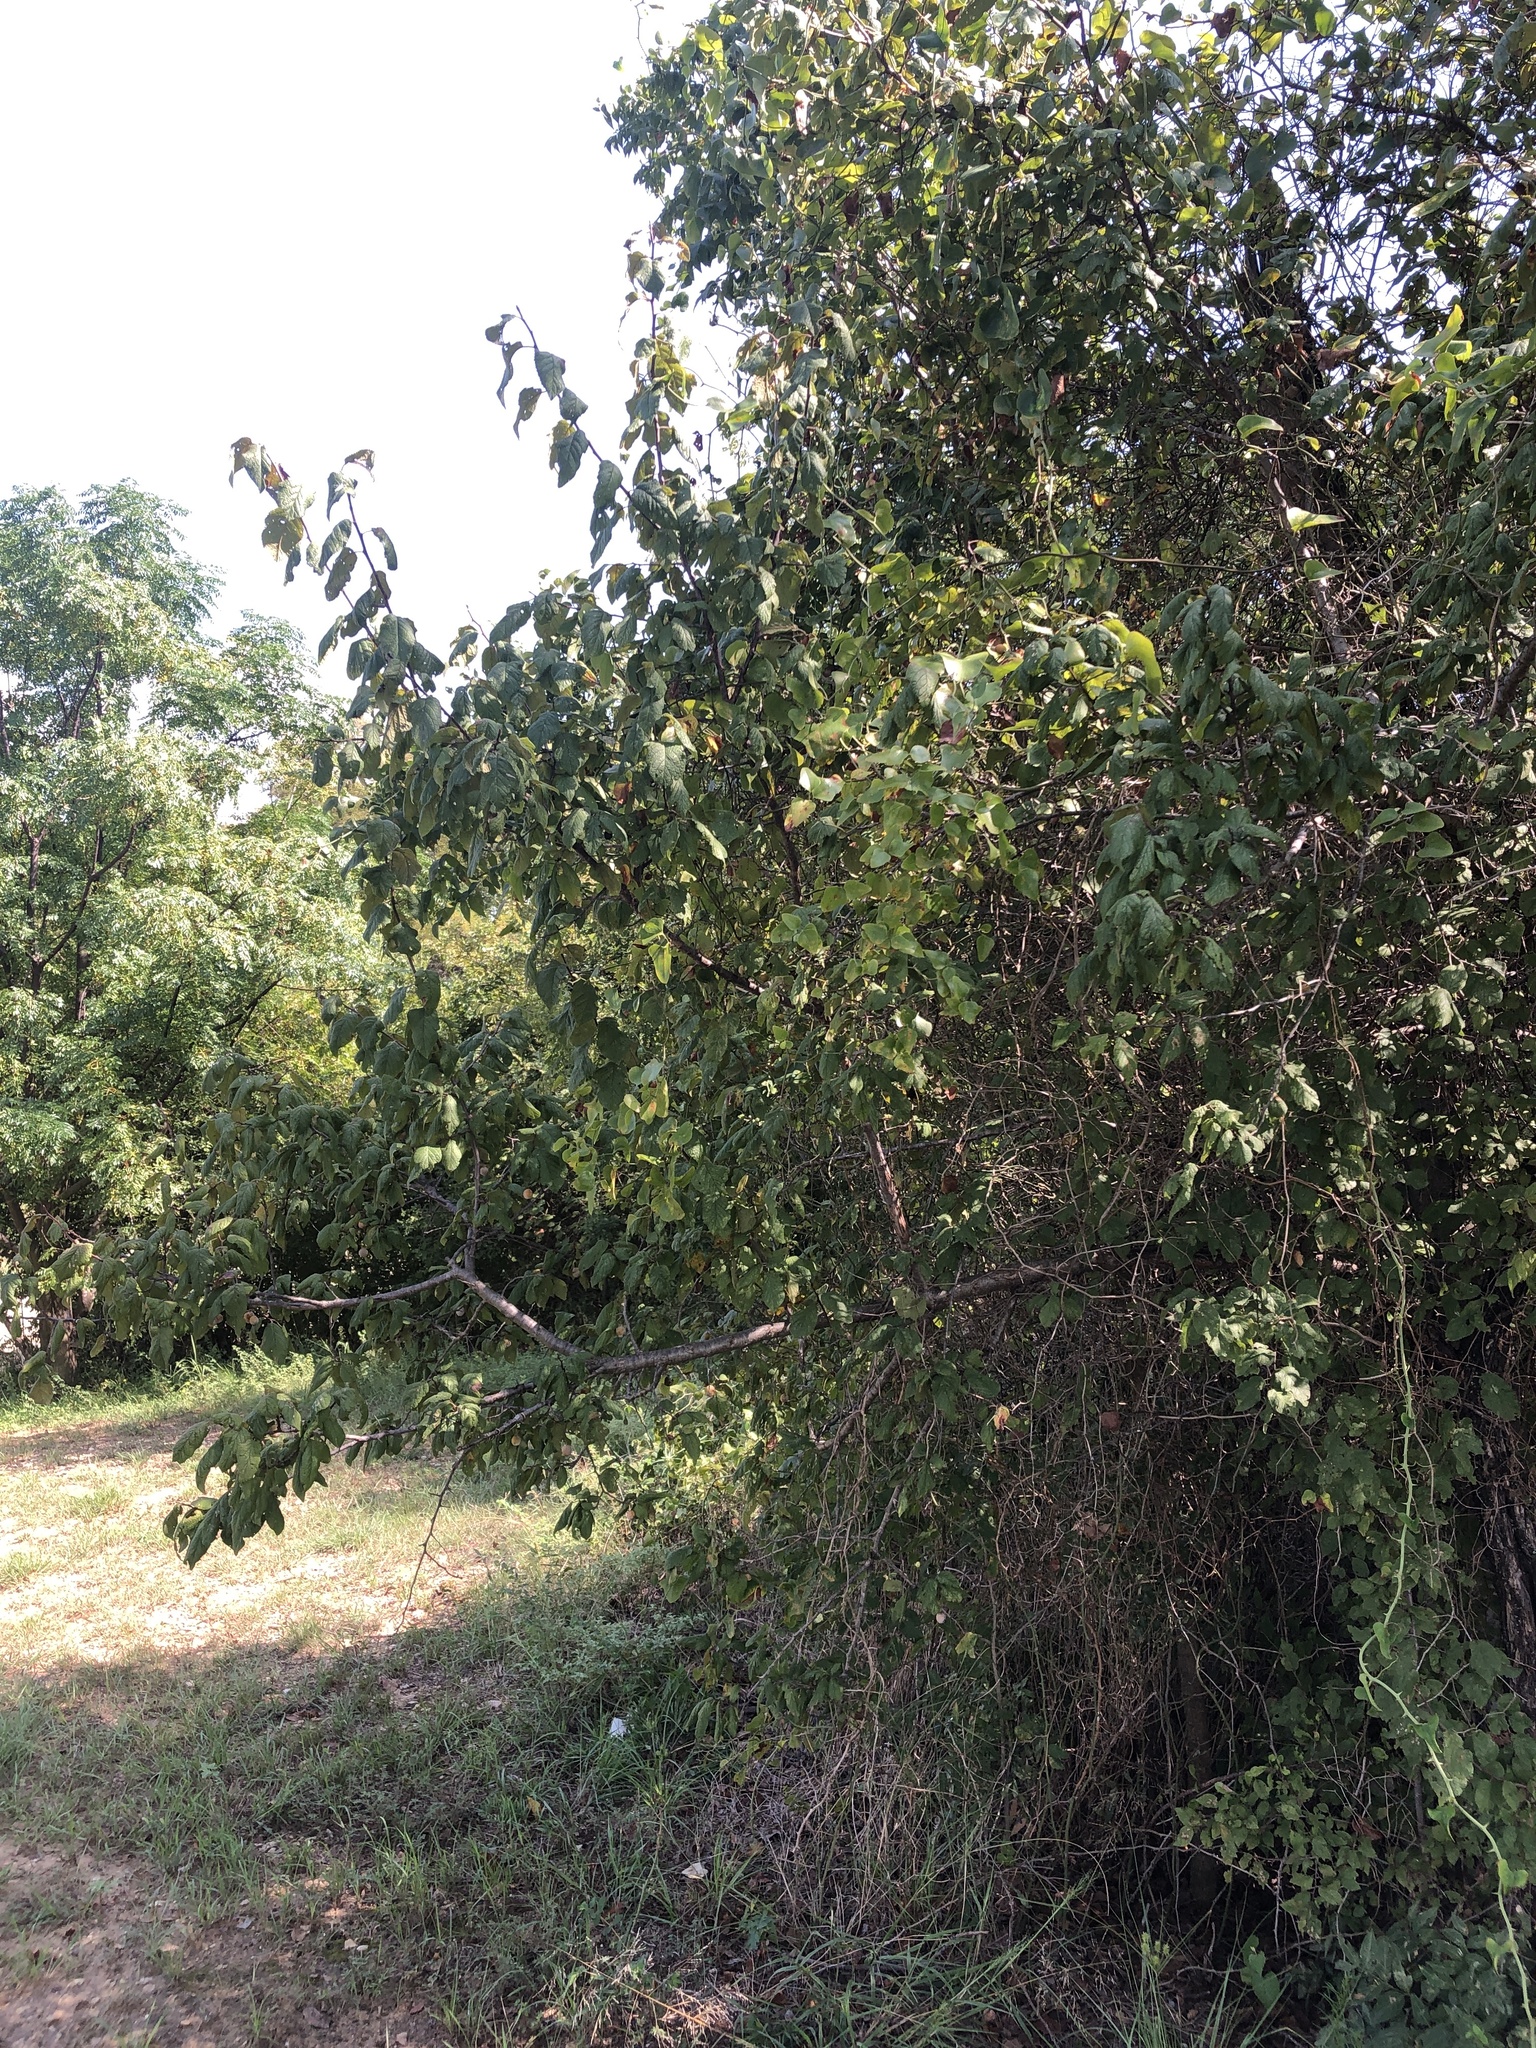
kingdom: Plantae
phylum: Tracheophyta
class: Magnoliopsida
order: Rosales
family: Rosaceae
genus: Prunus
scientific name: Prunus mexicana
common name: Mexican plum
